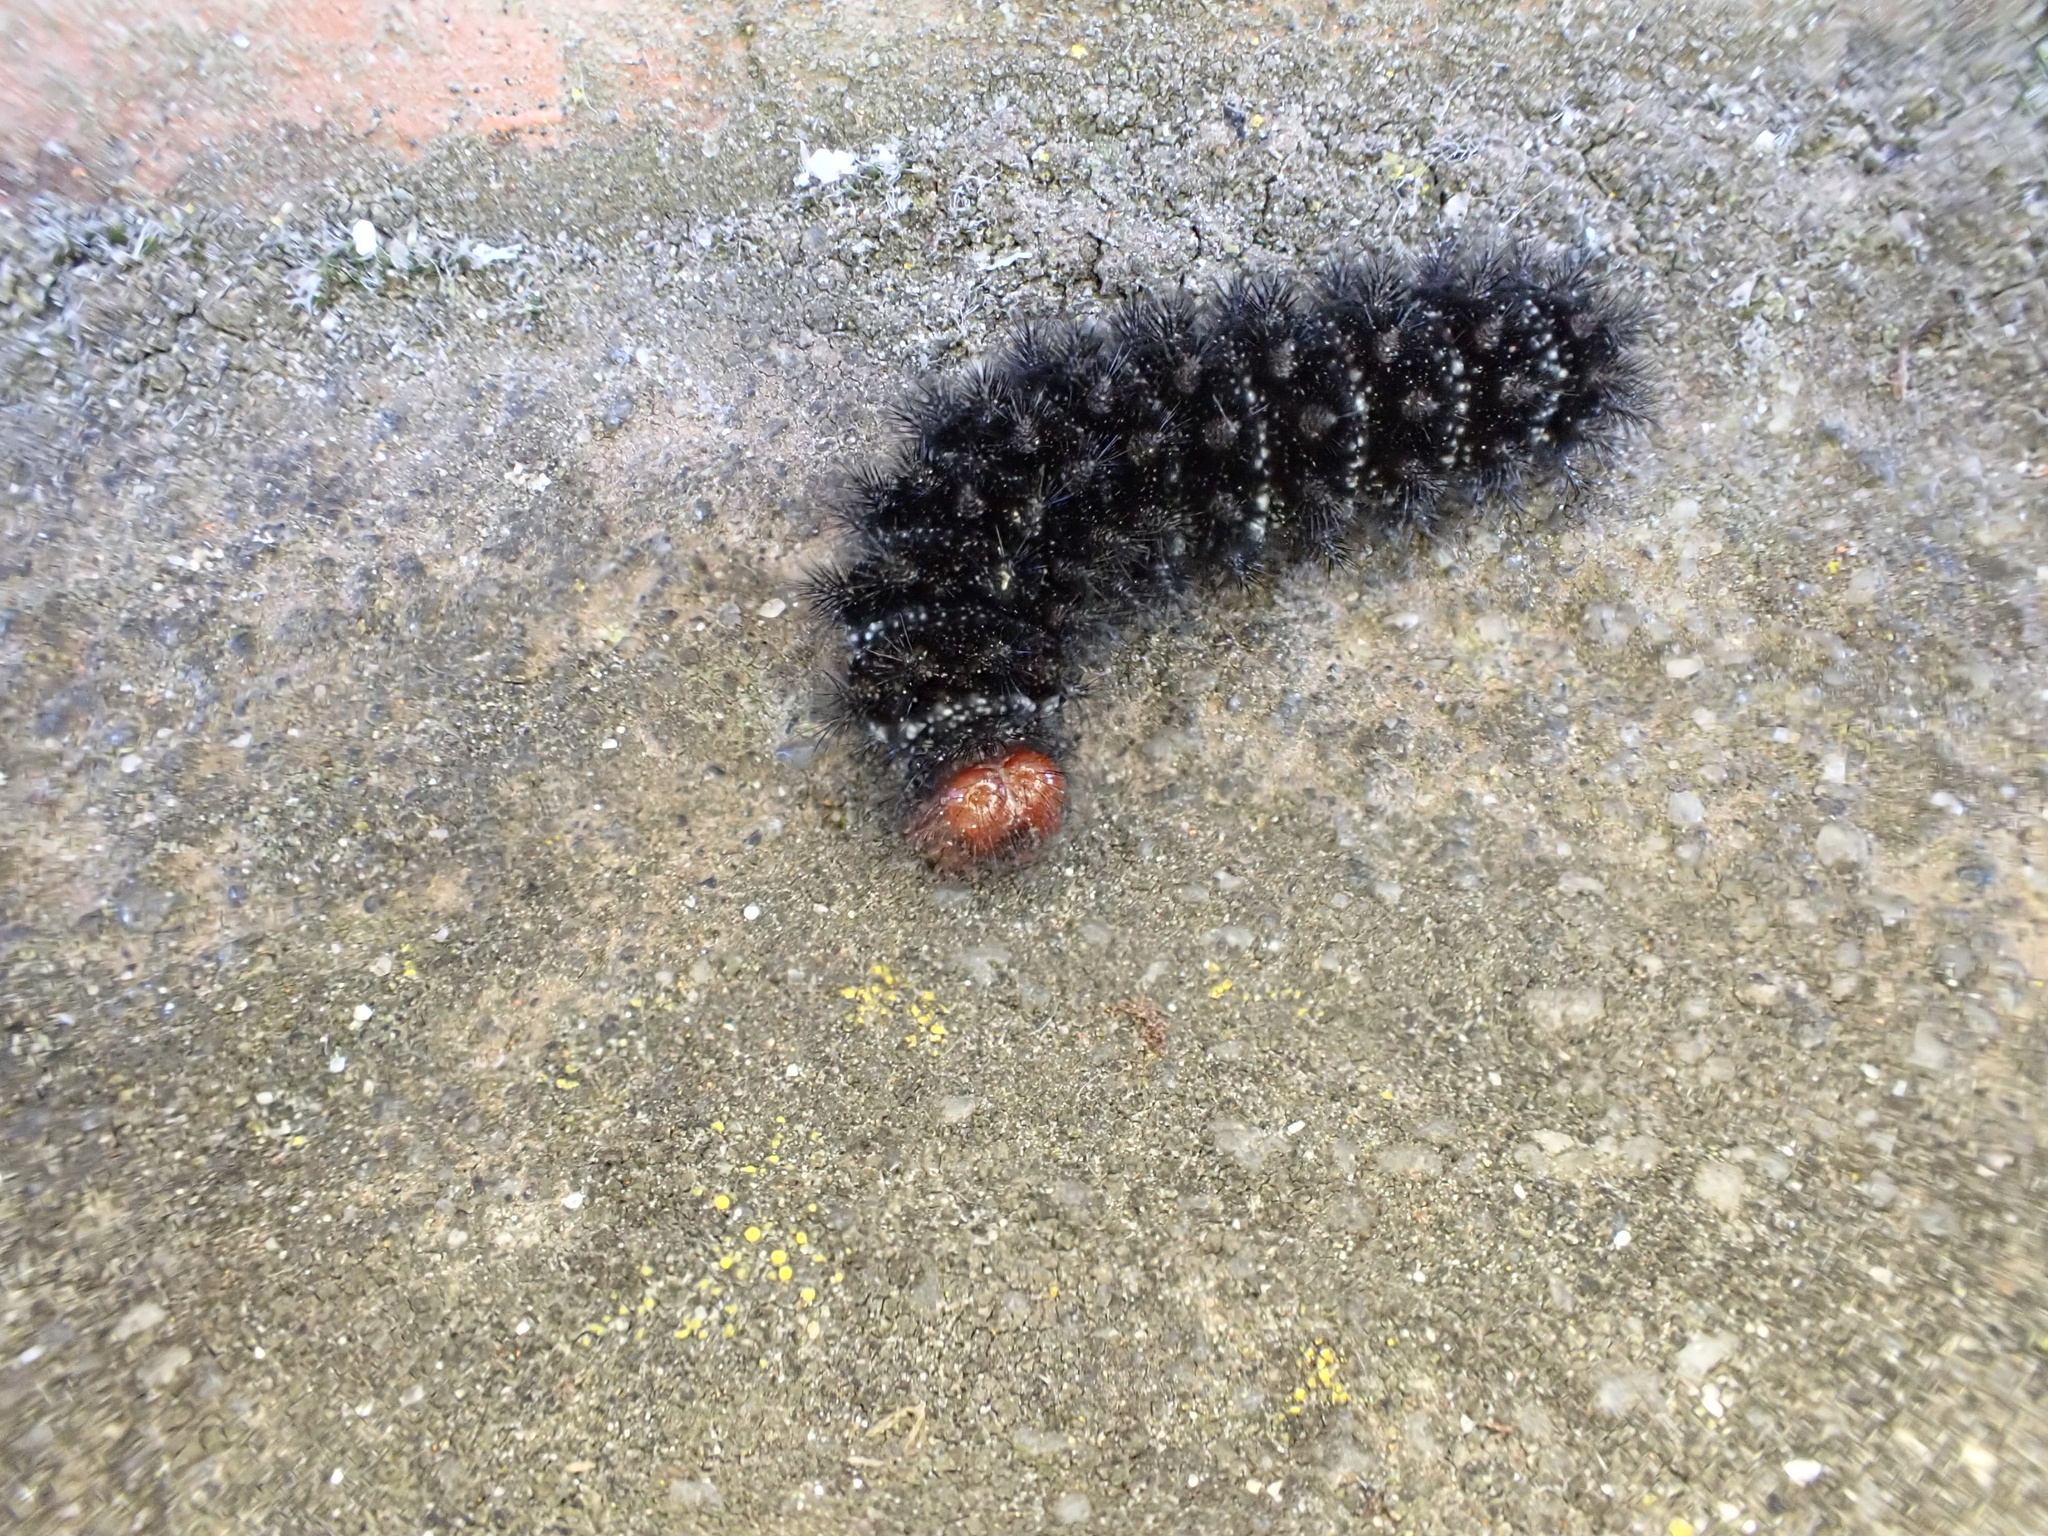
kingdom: Animalia
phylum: Arthropoda
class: Insecta
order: Lepidoptera
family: Nymphalidae
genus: Melitaea
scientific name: Melitaea cinxia
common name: Glanville fritillary
